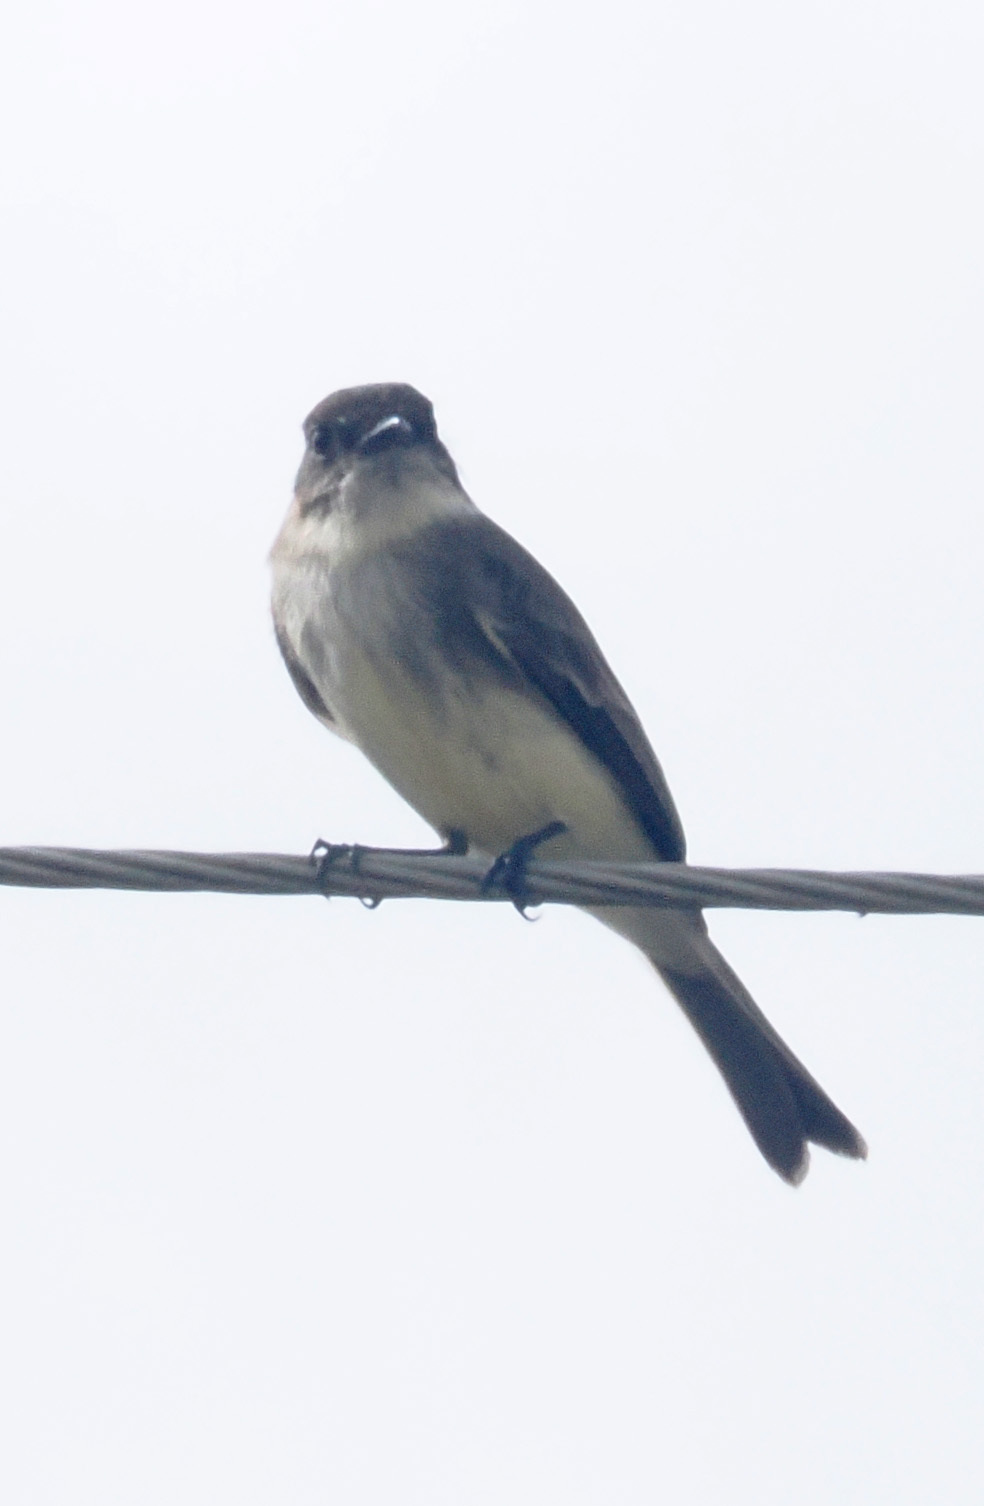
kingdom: Animalia
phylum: Chordata
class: Aves
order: Passeriformes
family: Tyrannidae
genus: Sayornis
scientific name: Sayornis phoebe
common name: Eastern phoebe
